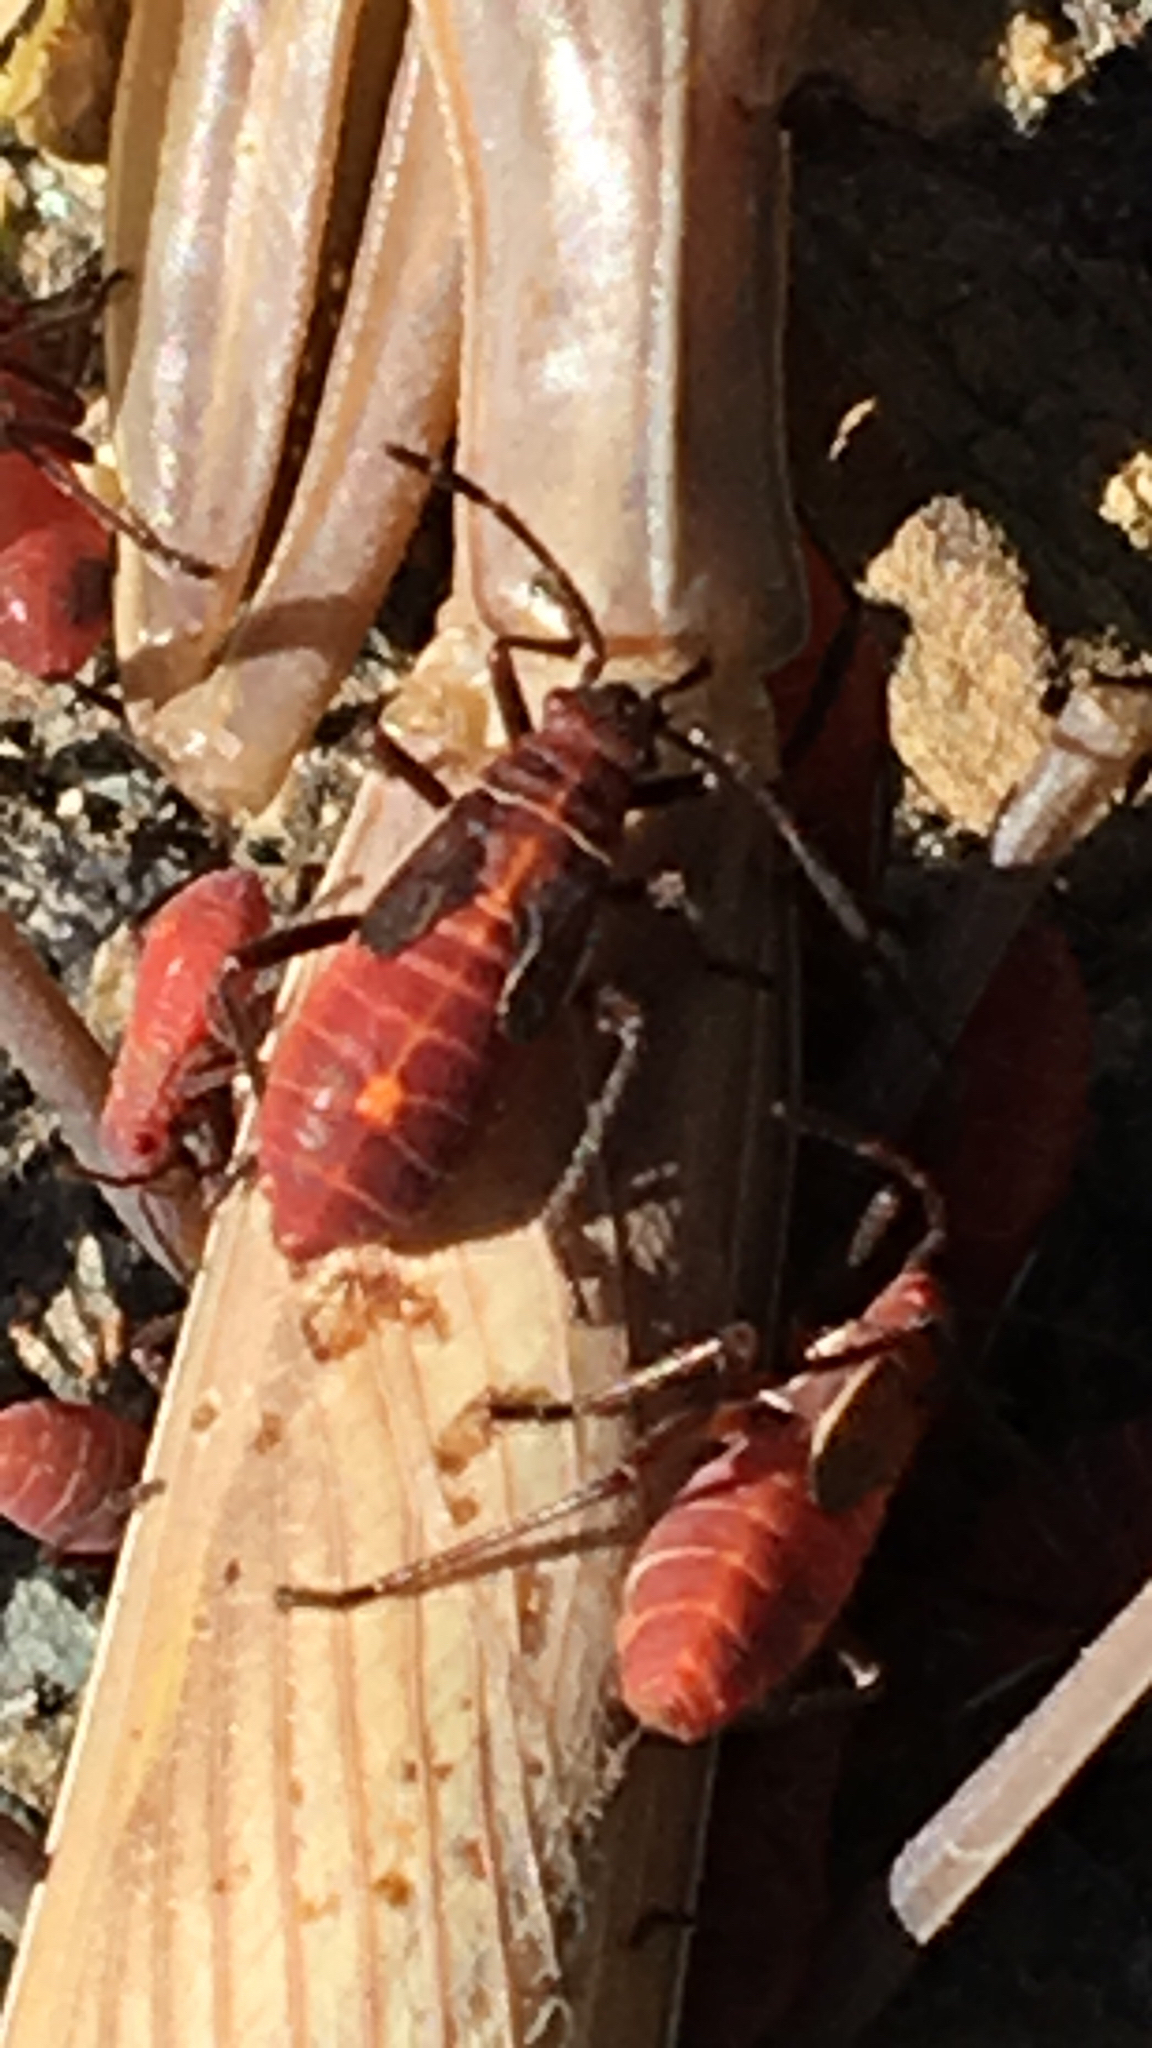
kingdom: Animalia
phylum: Arthropoda
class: Insecta
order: Hemiptera
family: Rhopalidae
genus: Boisea
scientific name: Boisea rubrolineata
